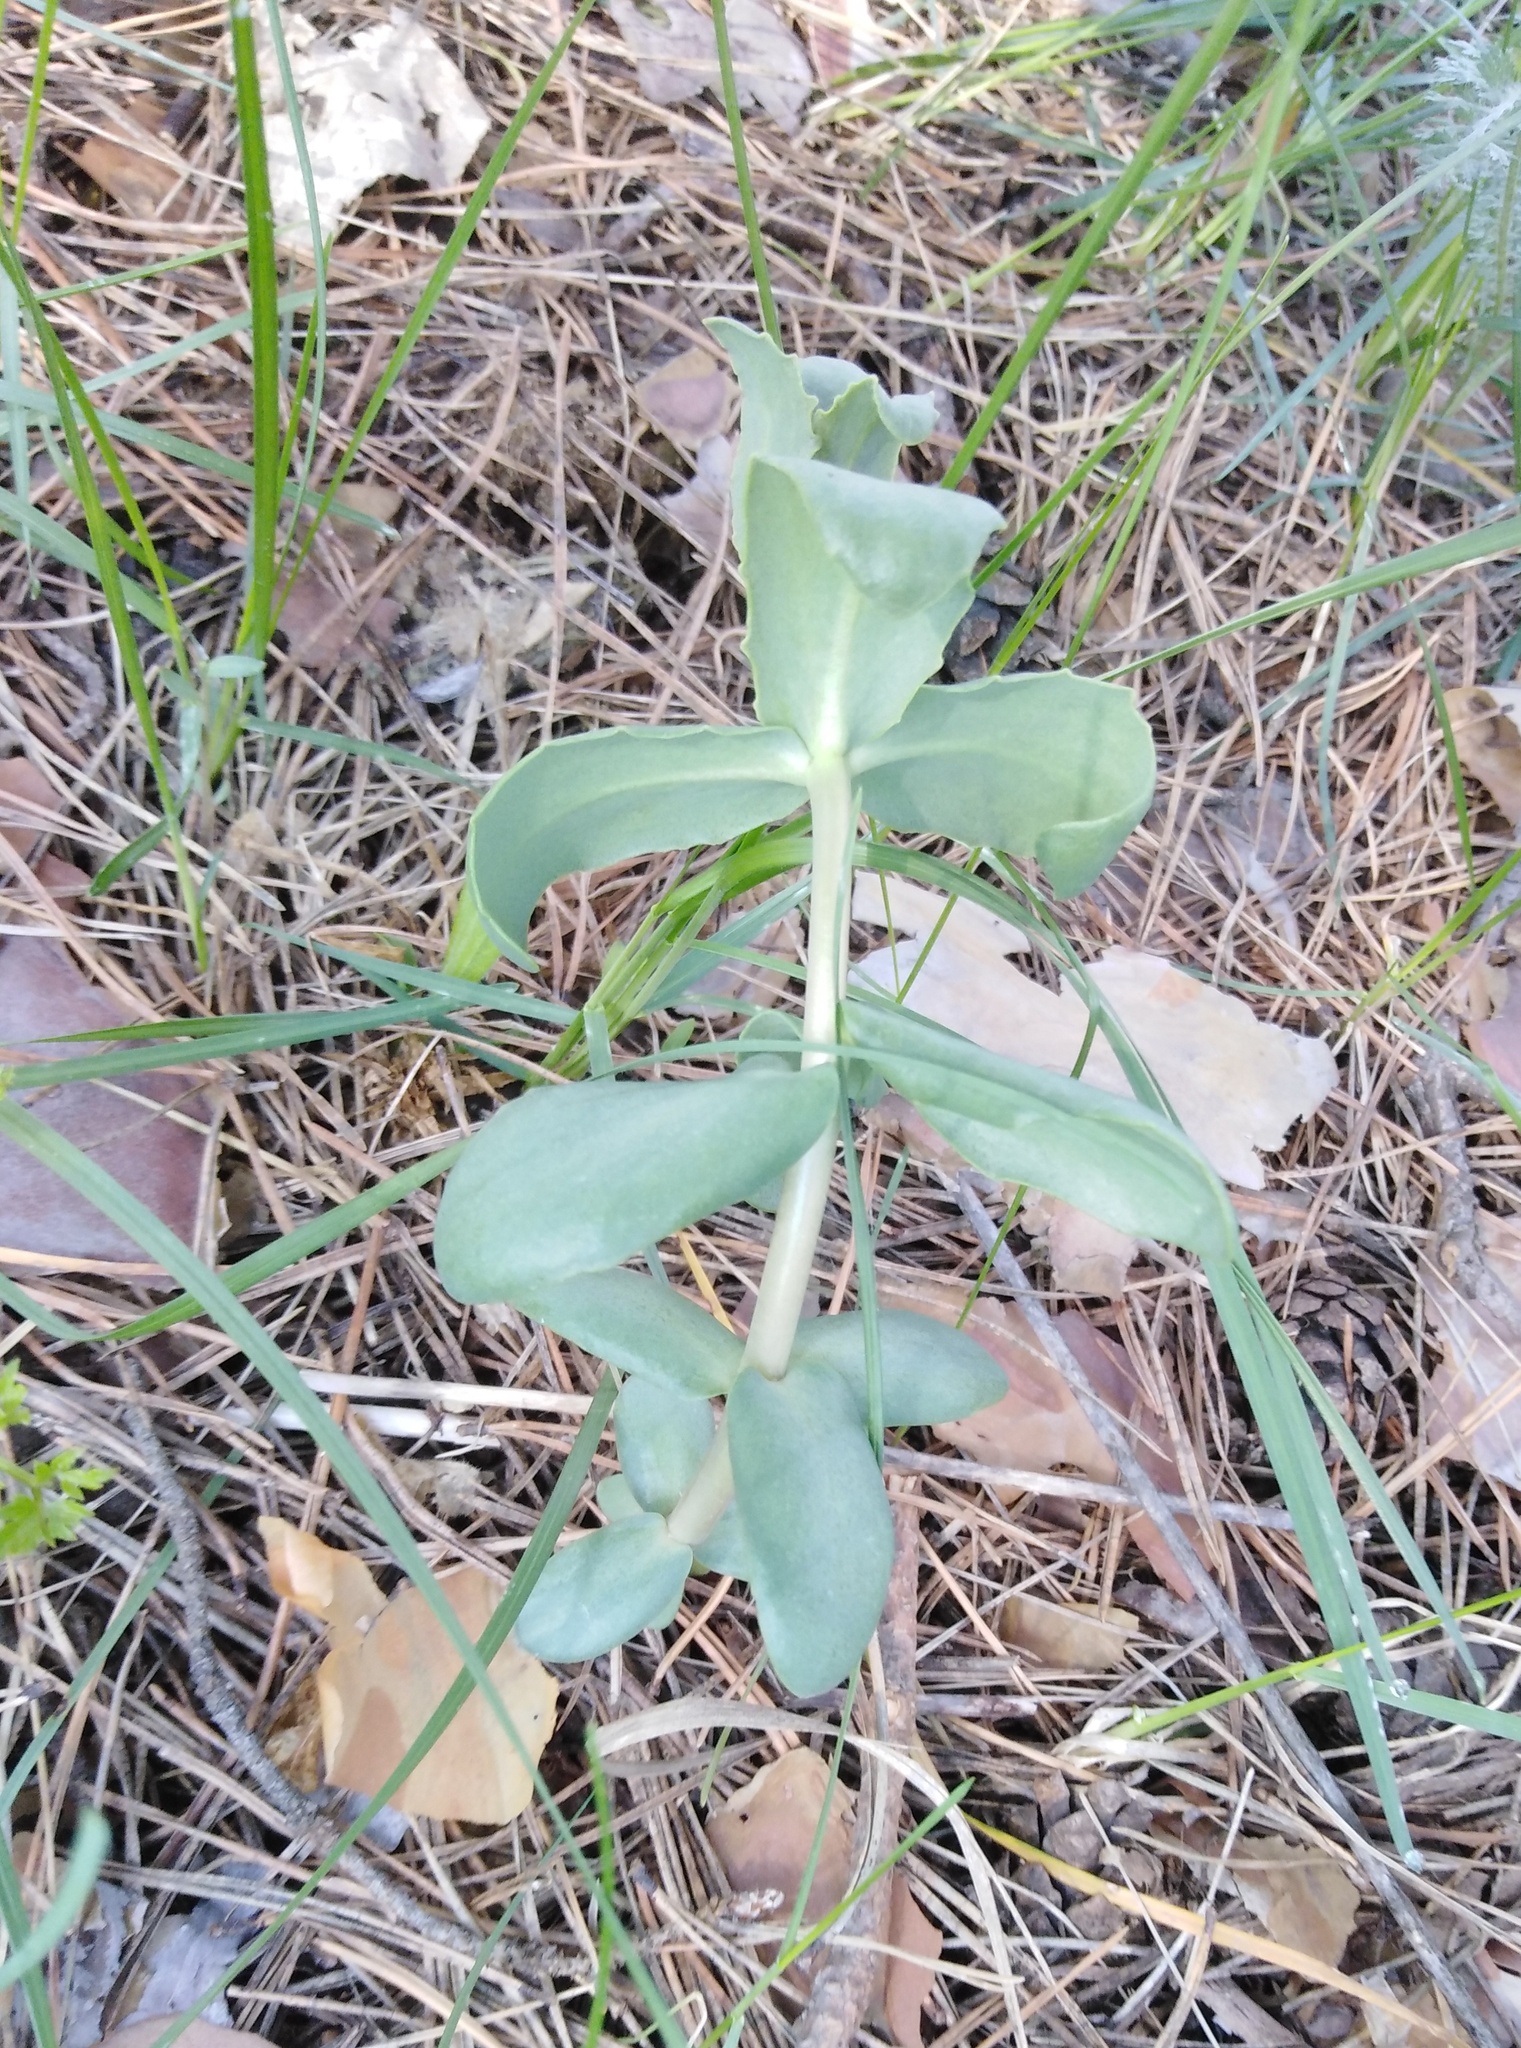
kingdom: Plantae
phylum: Tracheophyta
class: Magnoliopsida
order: Saxifragales
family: Crassulaceae
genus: Hylotelephium
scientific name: Hylotelephium maximum
